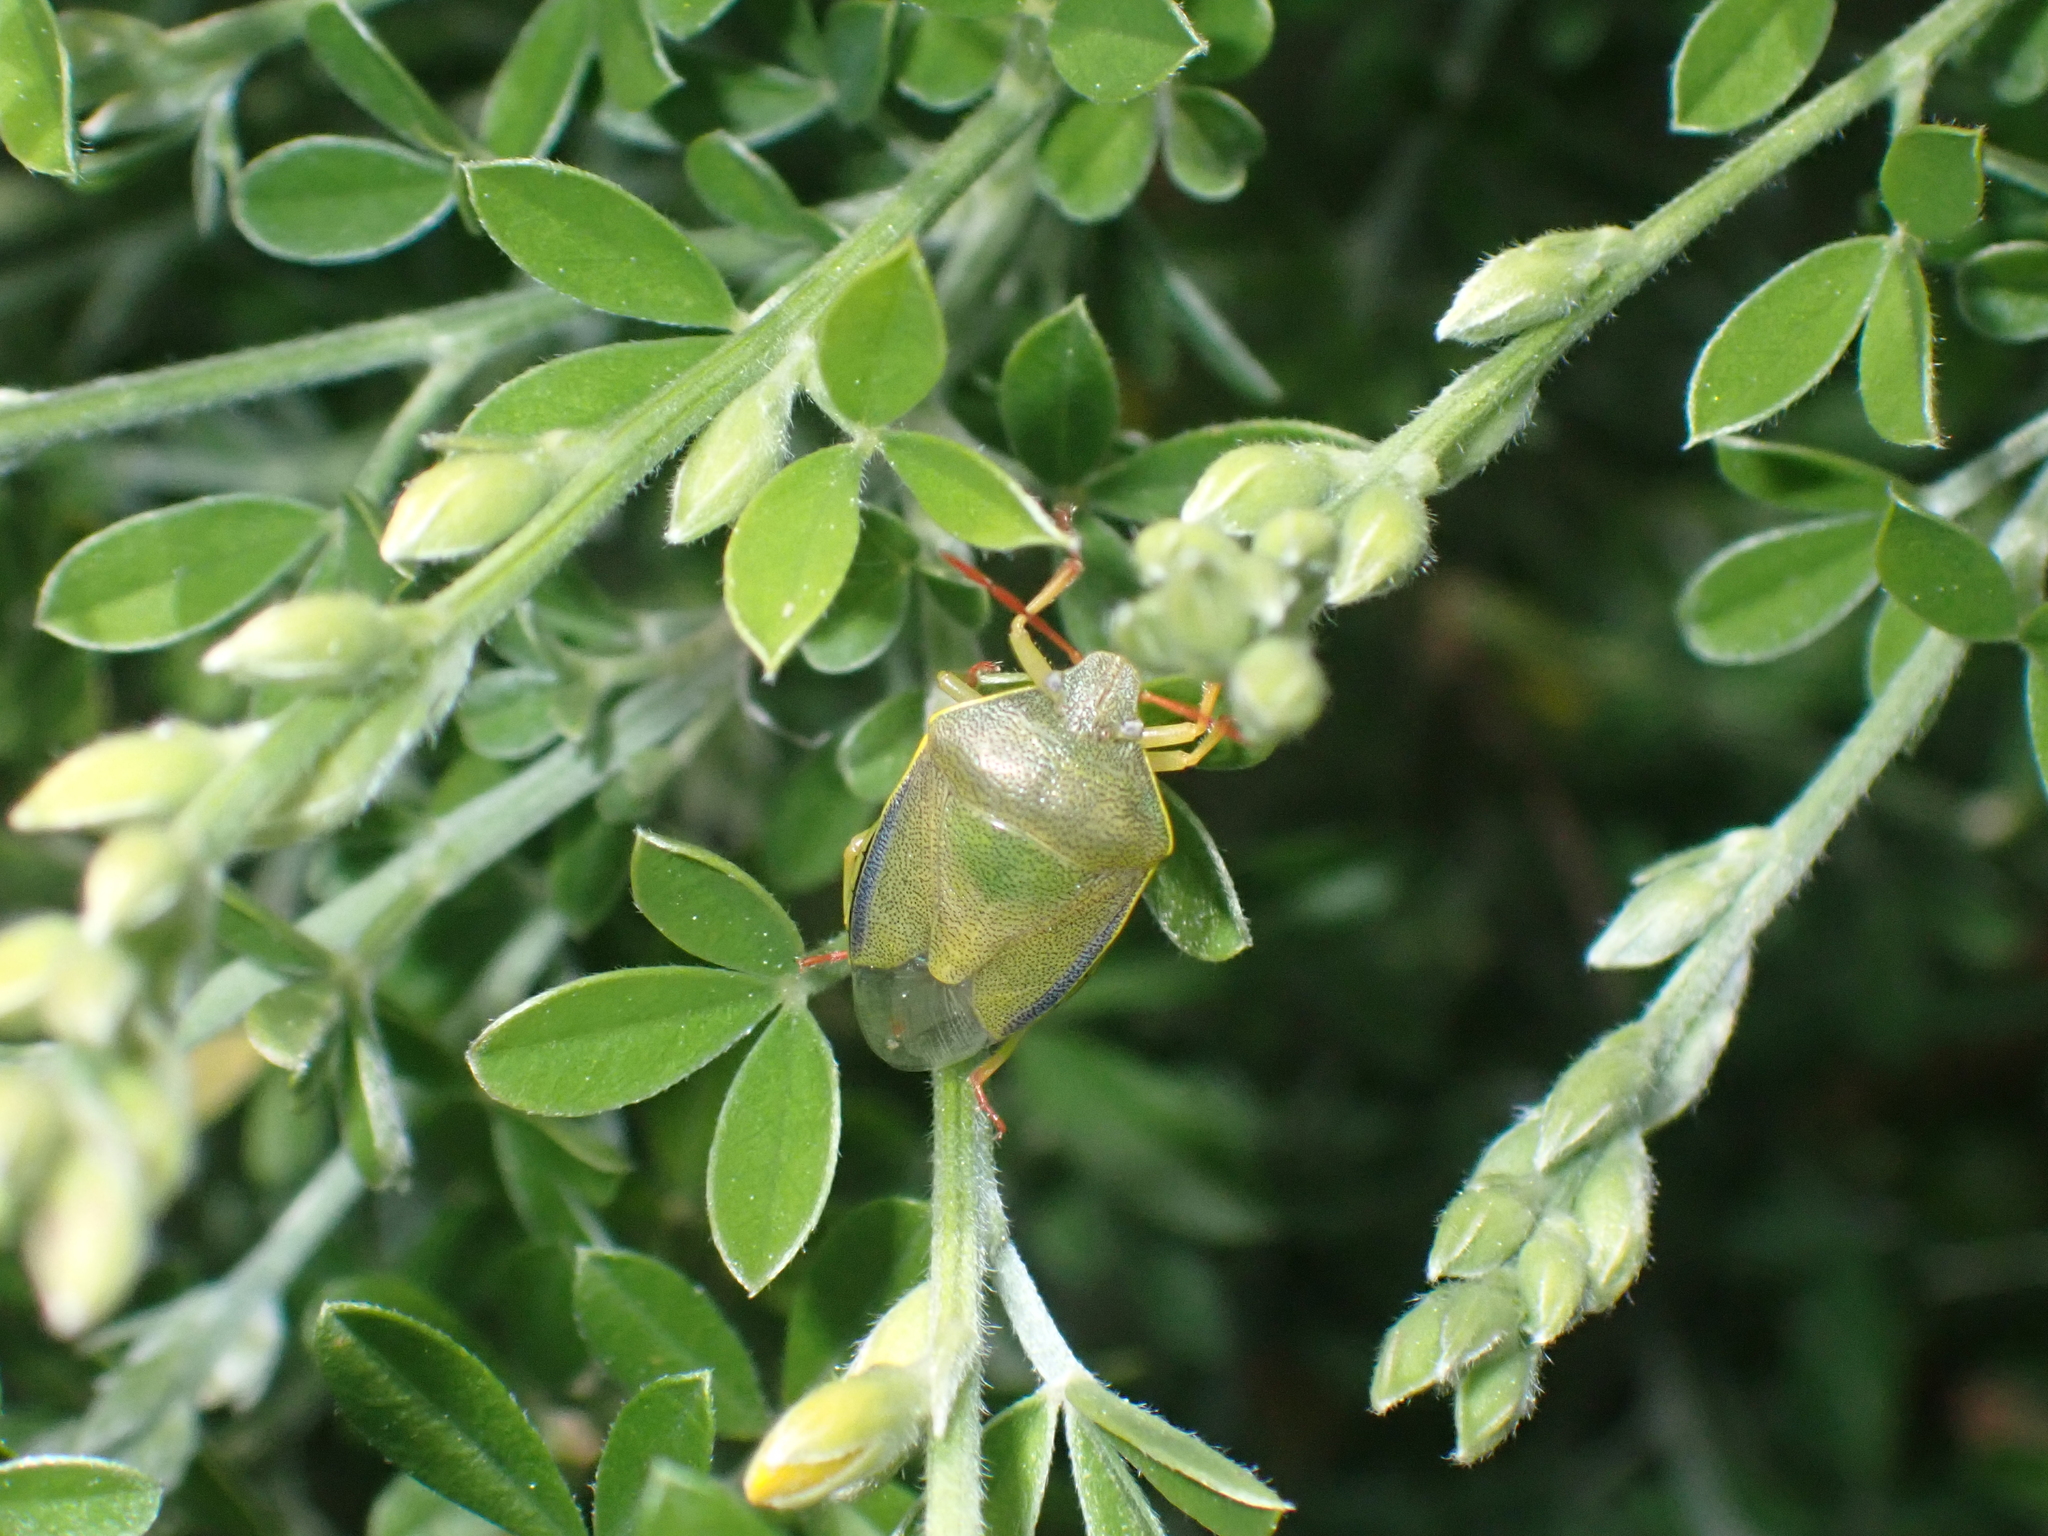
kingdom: Animalia
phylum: Arthropoda
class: Insecta
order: Hemiptera
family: Pentatomidae
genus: Piezodorus
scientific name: Piezodorus lituratus
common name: Stink bug
